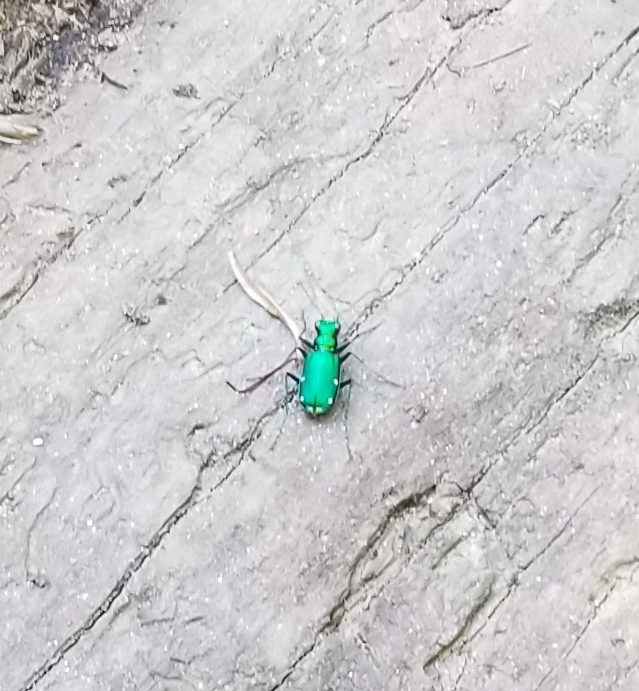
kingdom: Animalia
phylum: Arthropoda
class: Insecta
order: Coleoptera
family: Carabidae
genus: Cicindela
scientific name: Cicindela sexguttata
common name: Six-spotted tiger beetle
